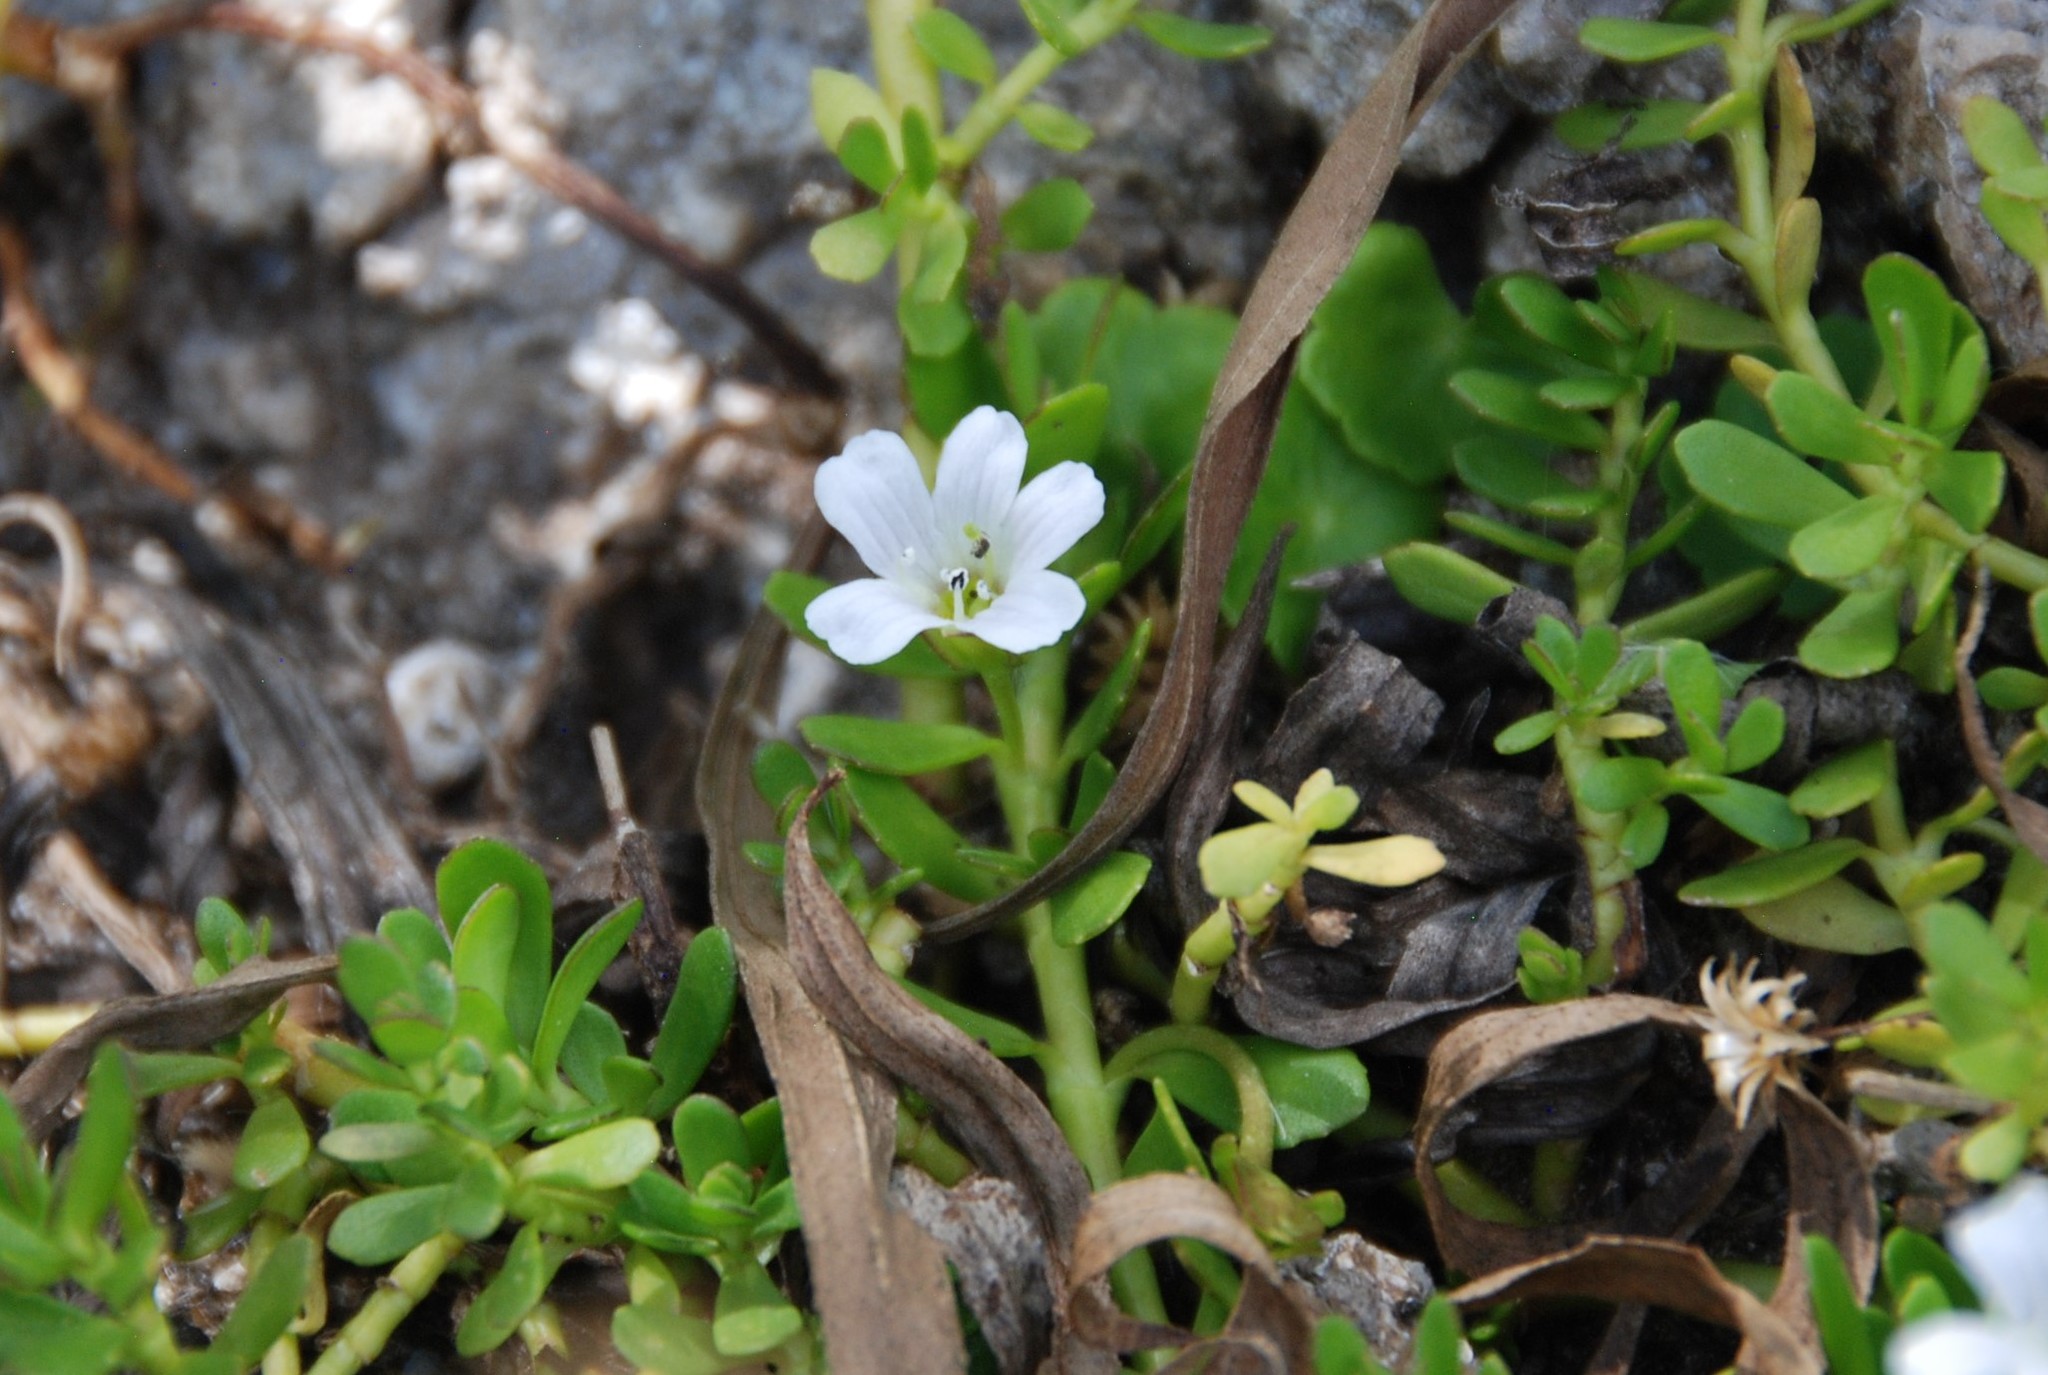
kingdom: Plantae
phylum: Tracheophyta
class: Magnoliopsida
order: Lamiales
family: Plantaginaceae
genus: Bacopa
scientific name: Bacopa monnieri
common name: Indian-pennywort
